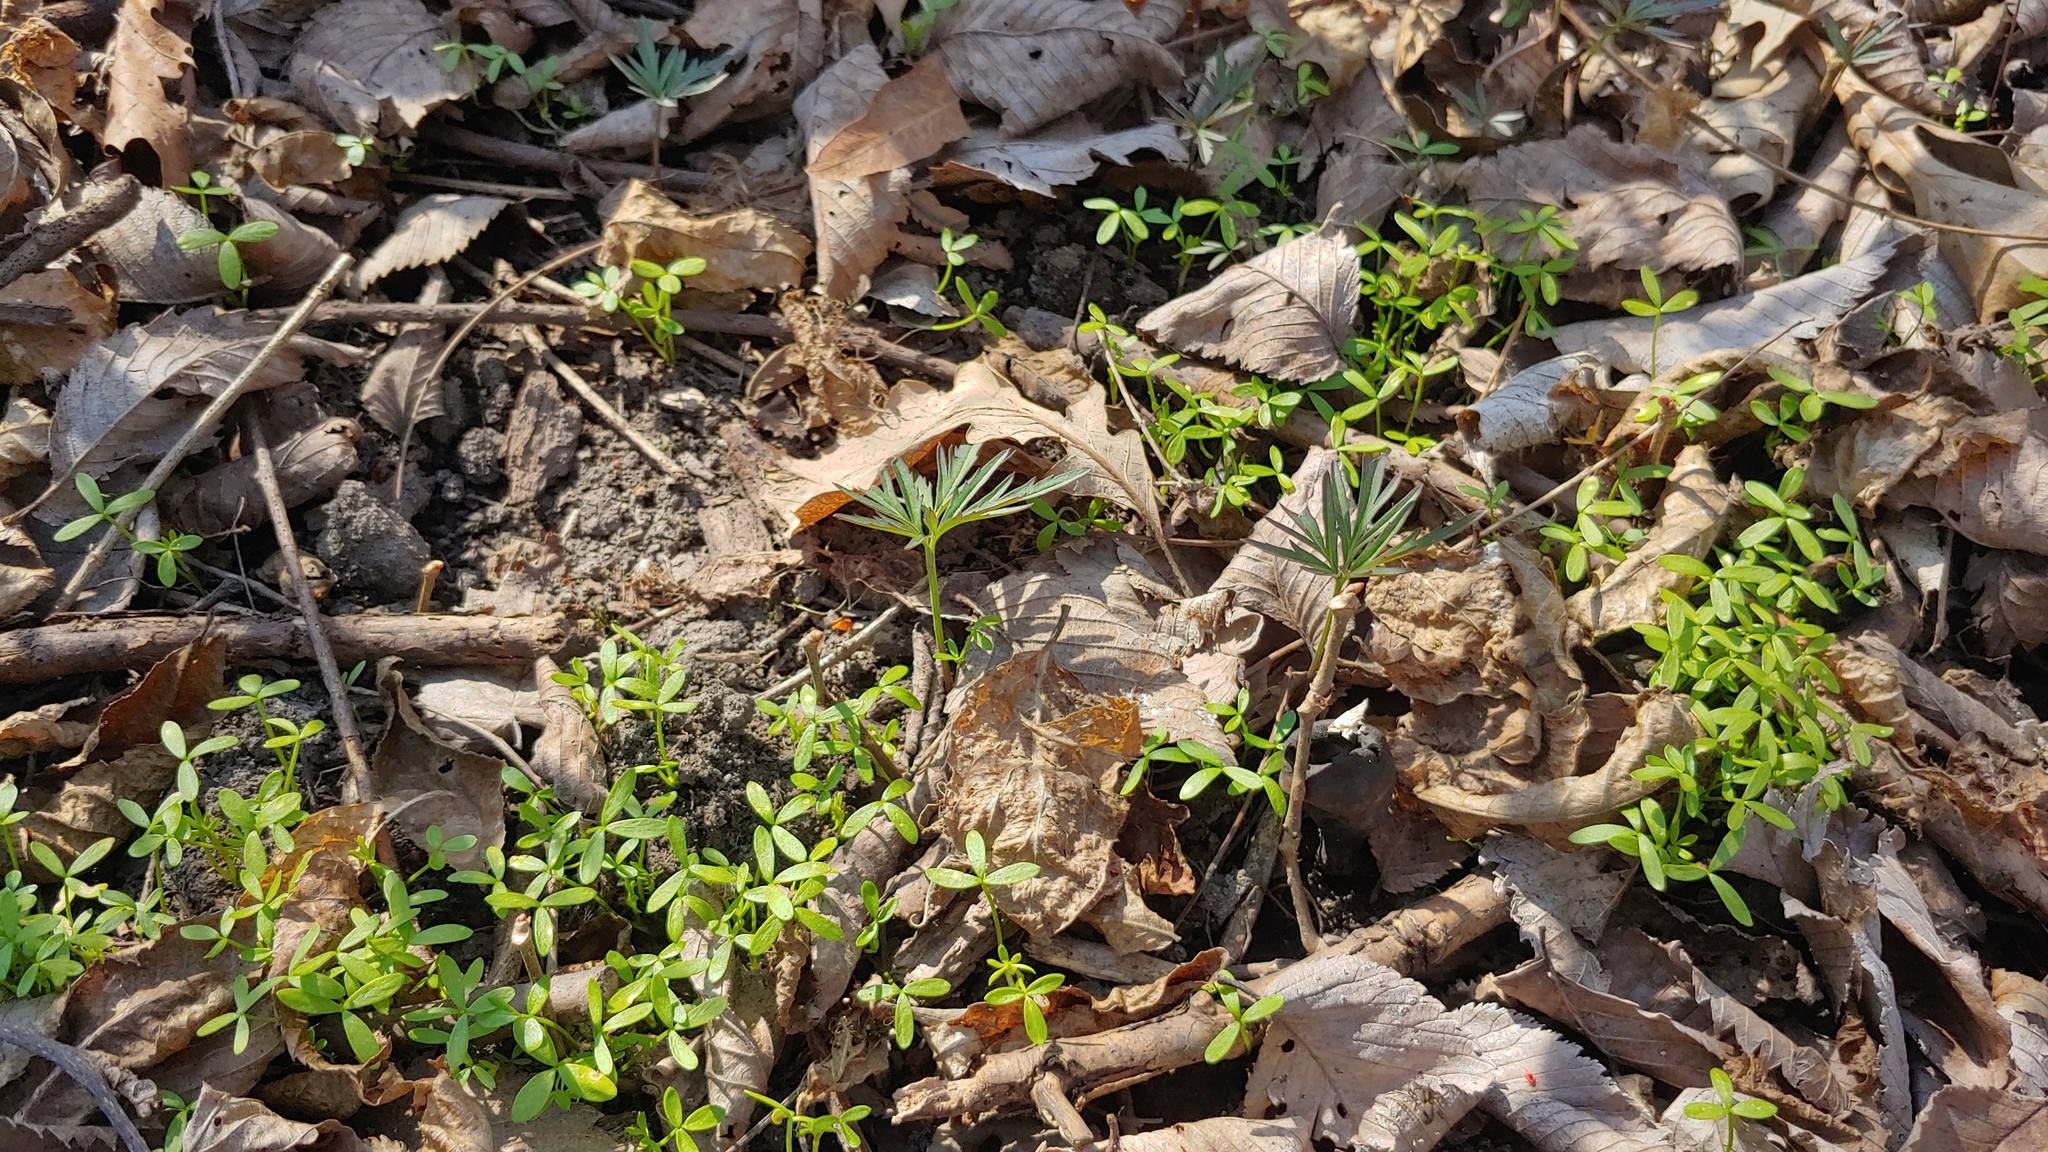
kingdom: Plantae
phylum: Tracheophyta
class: Magnoliopsida
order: Brassicales
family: Brassicaceae
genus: Cardamine
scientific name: Cardamine concatenata
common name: Cut-leaf toothcup
